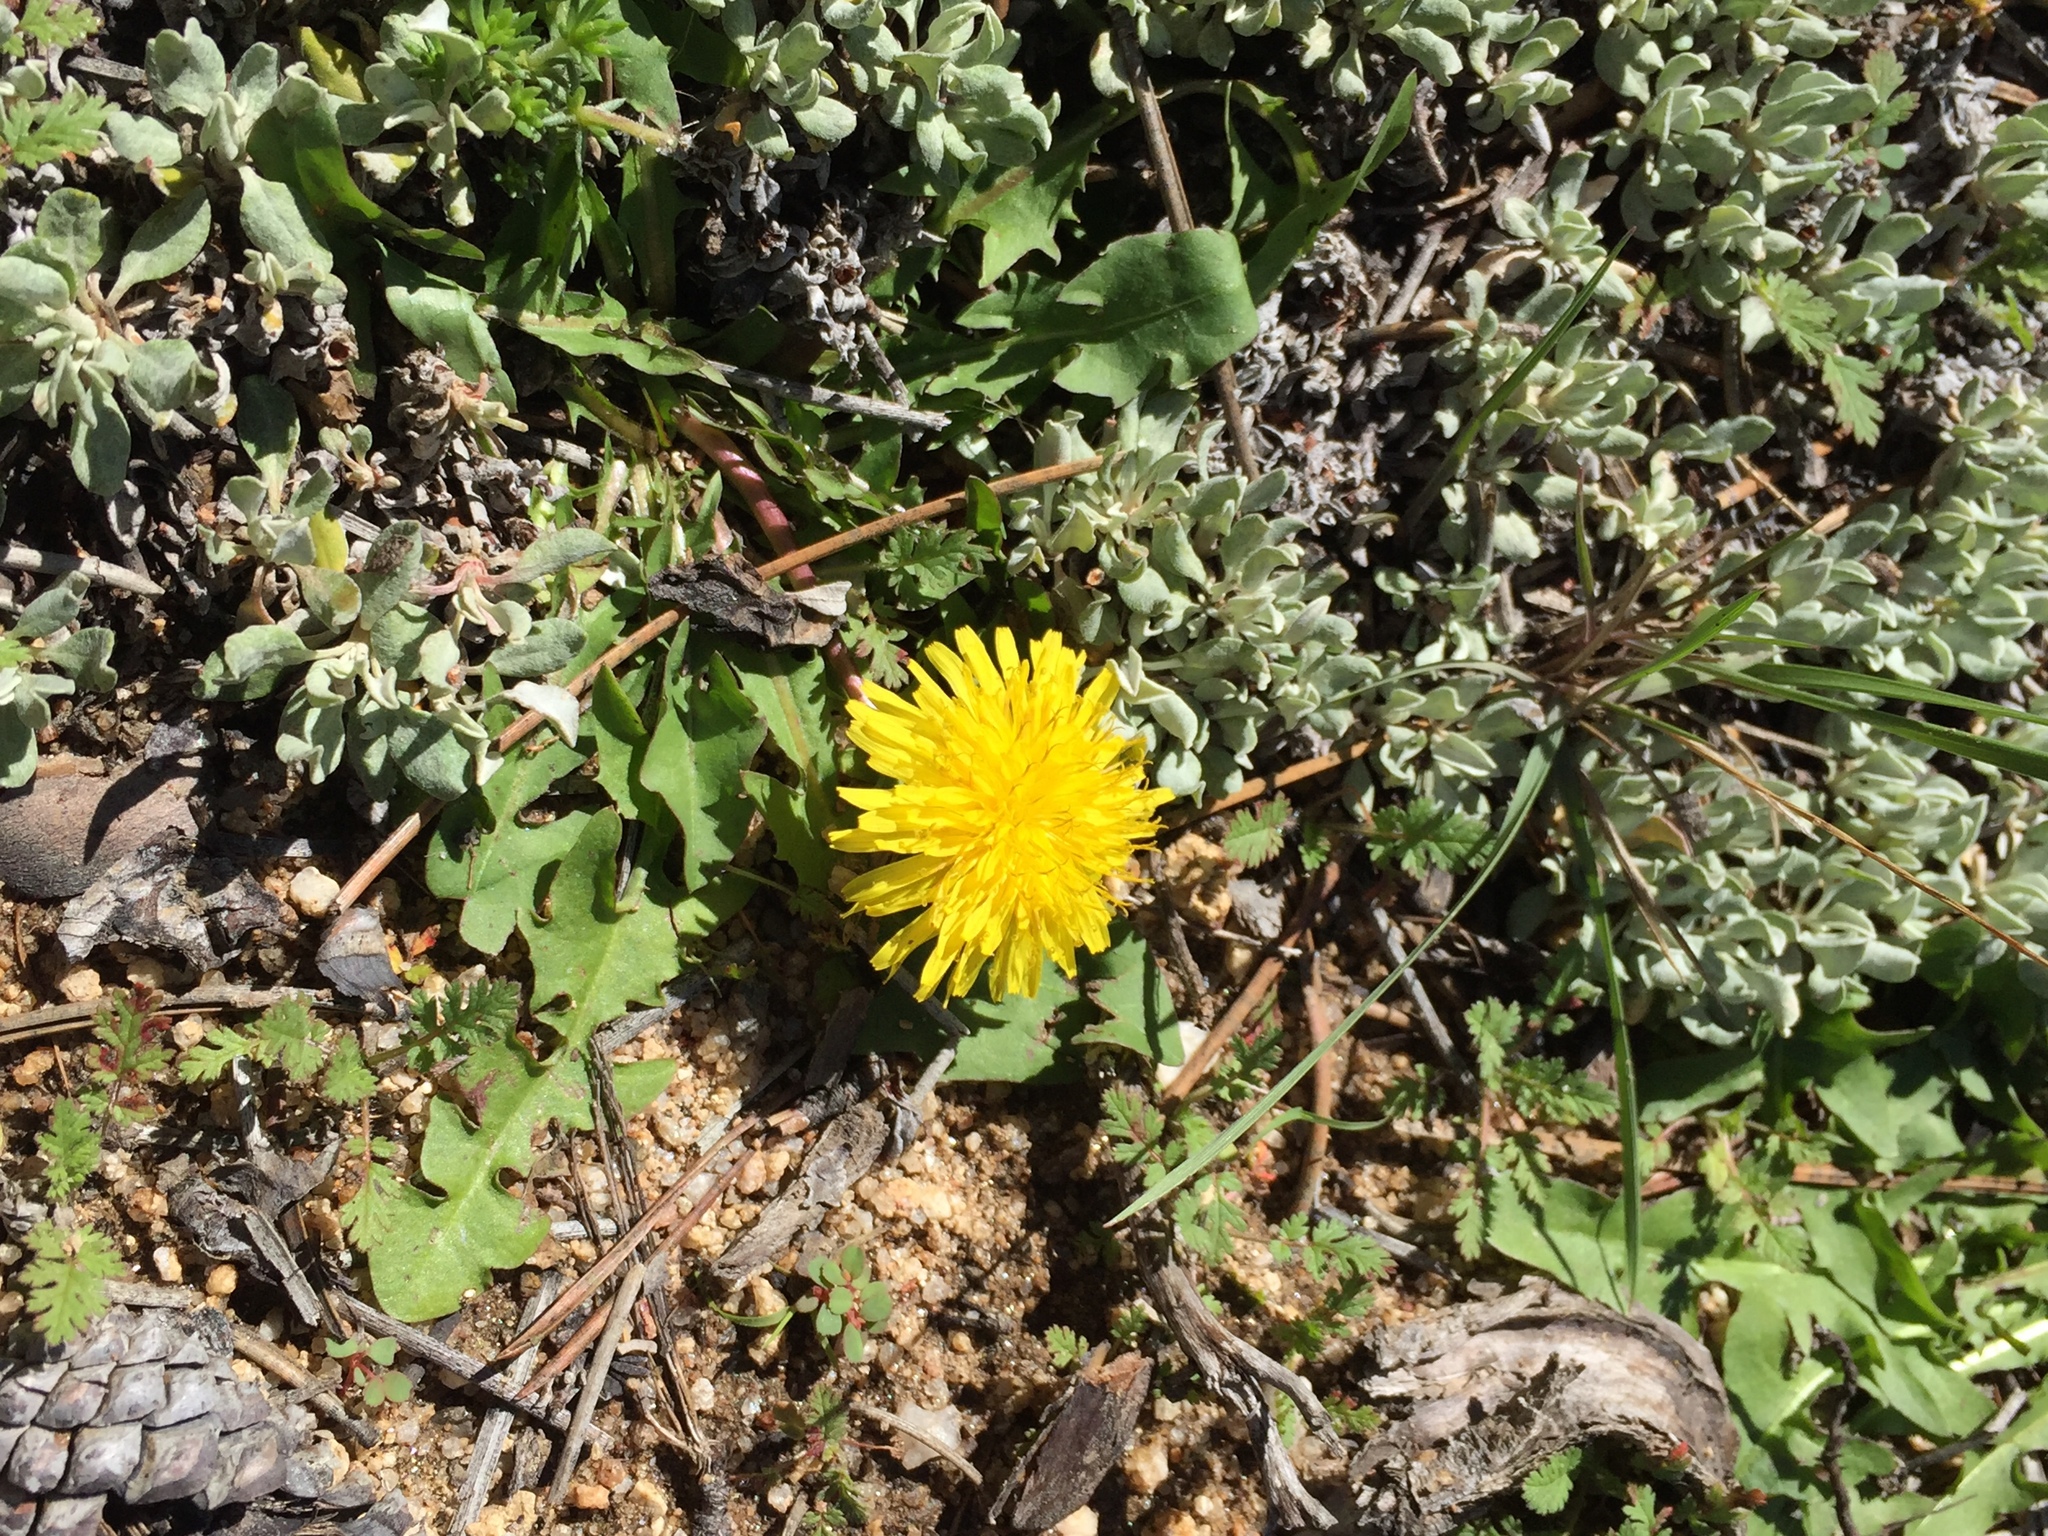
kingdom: Plantae
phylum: Tracheophyta
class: Magnoliopsida
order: Asterales
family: Asteraceae
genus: Taraxacum
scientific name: Taraxacum officinale
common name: Common dandelion
